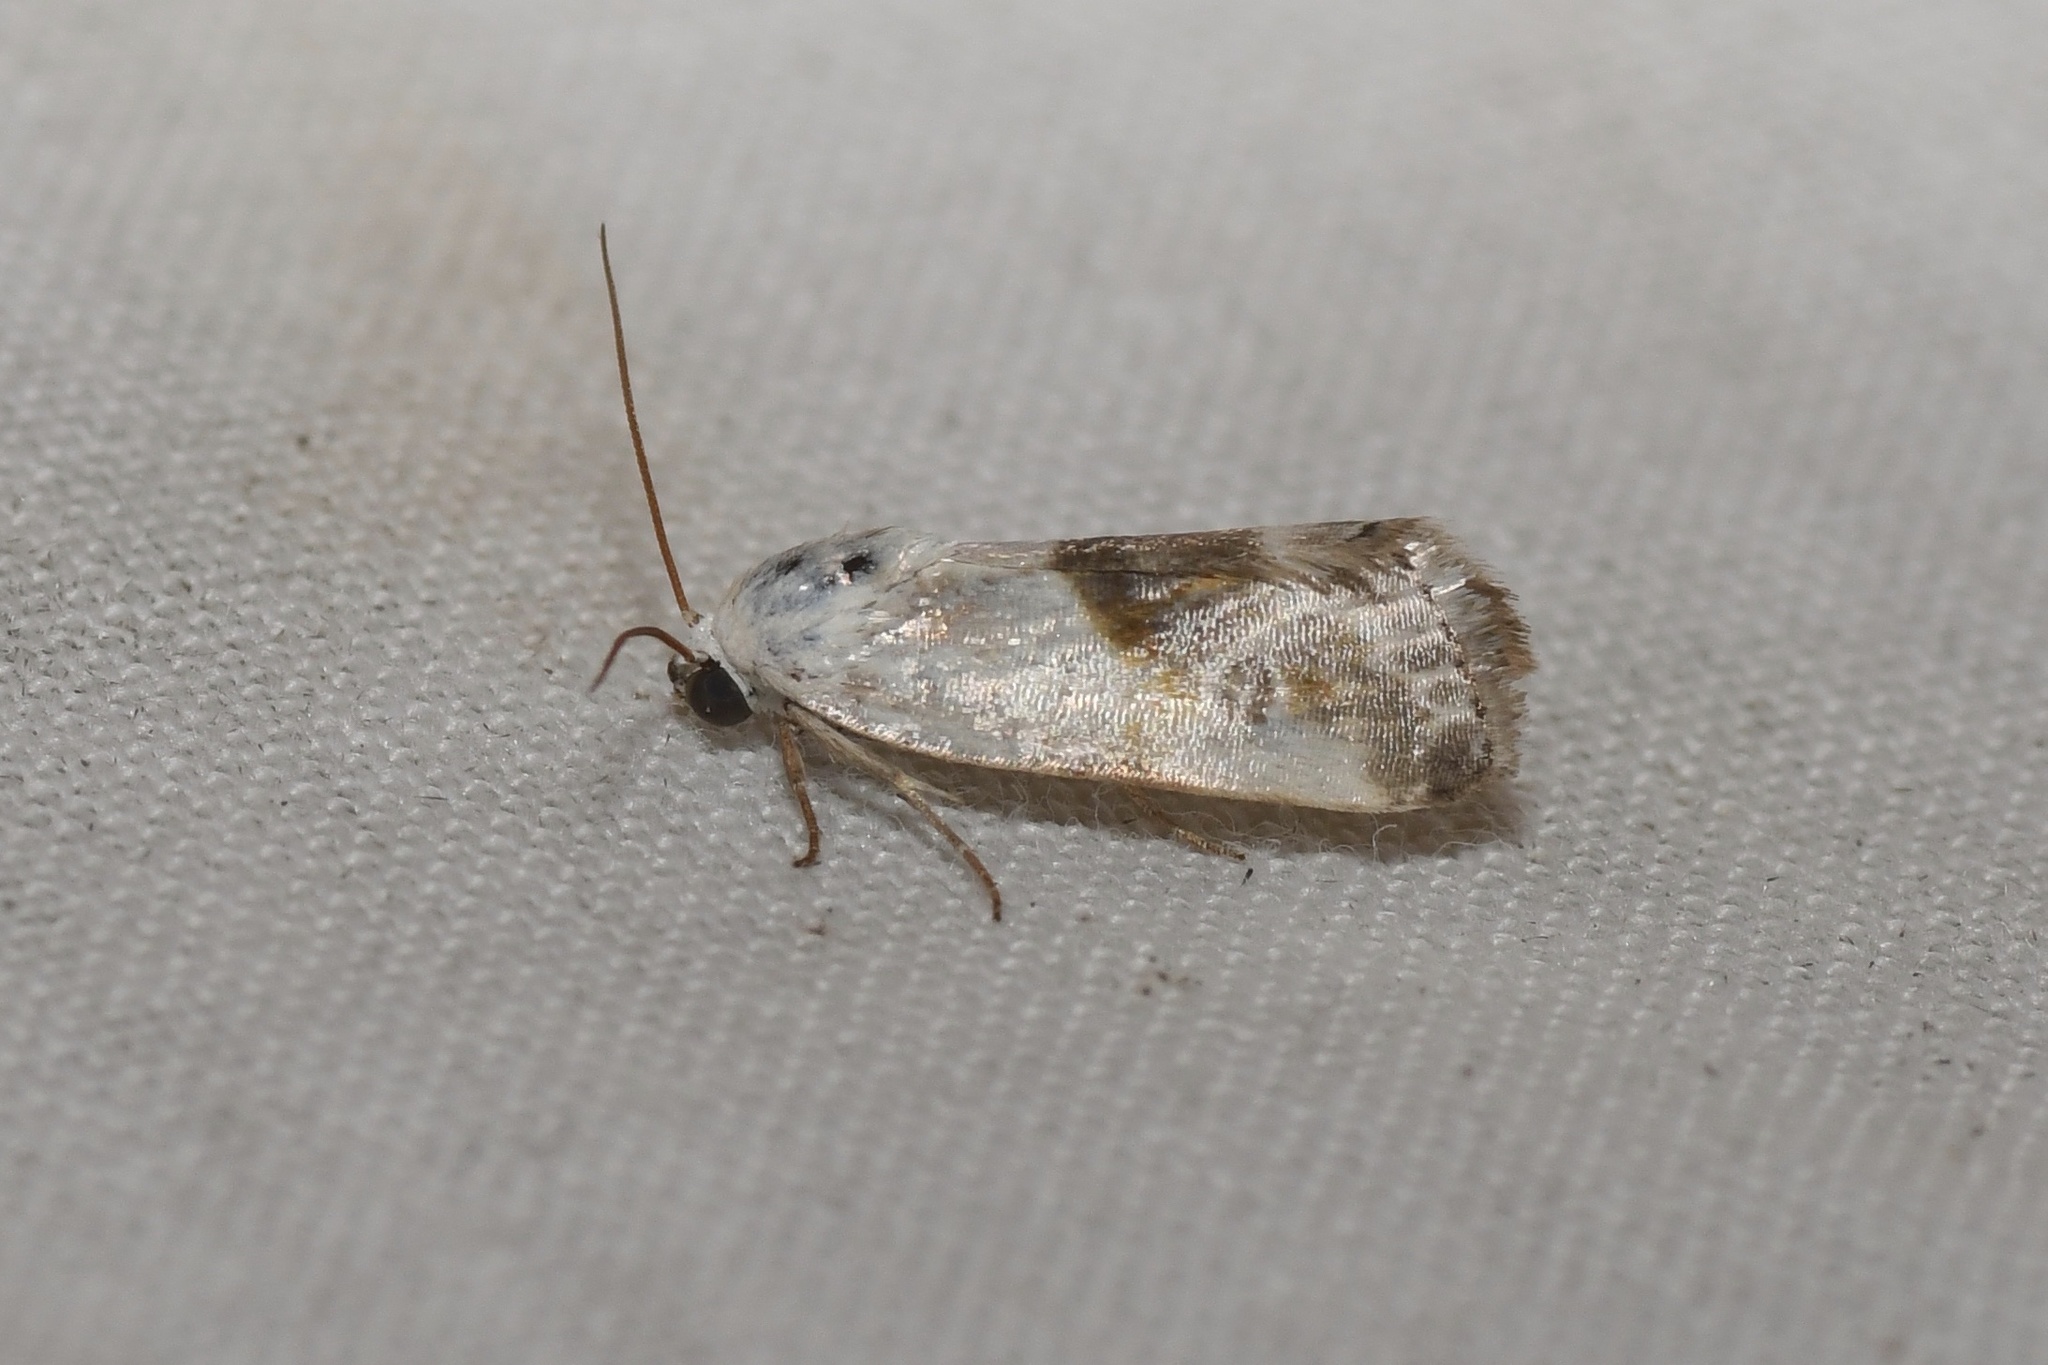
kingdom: Animalia
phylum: Arthropoda
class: Insecta
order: Lepidoptera
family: Noctuidae
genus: Acontia
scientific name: Acontia candefacta
